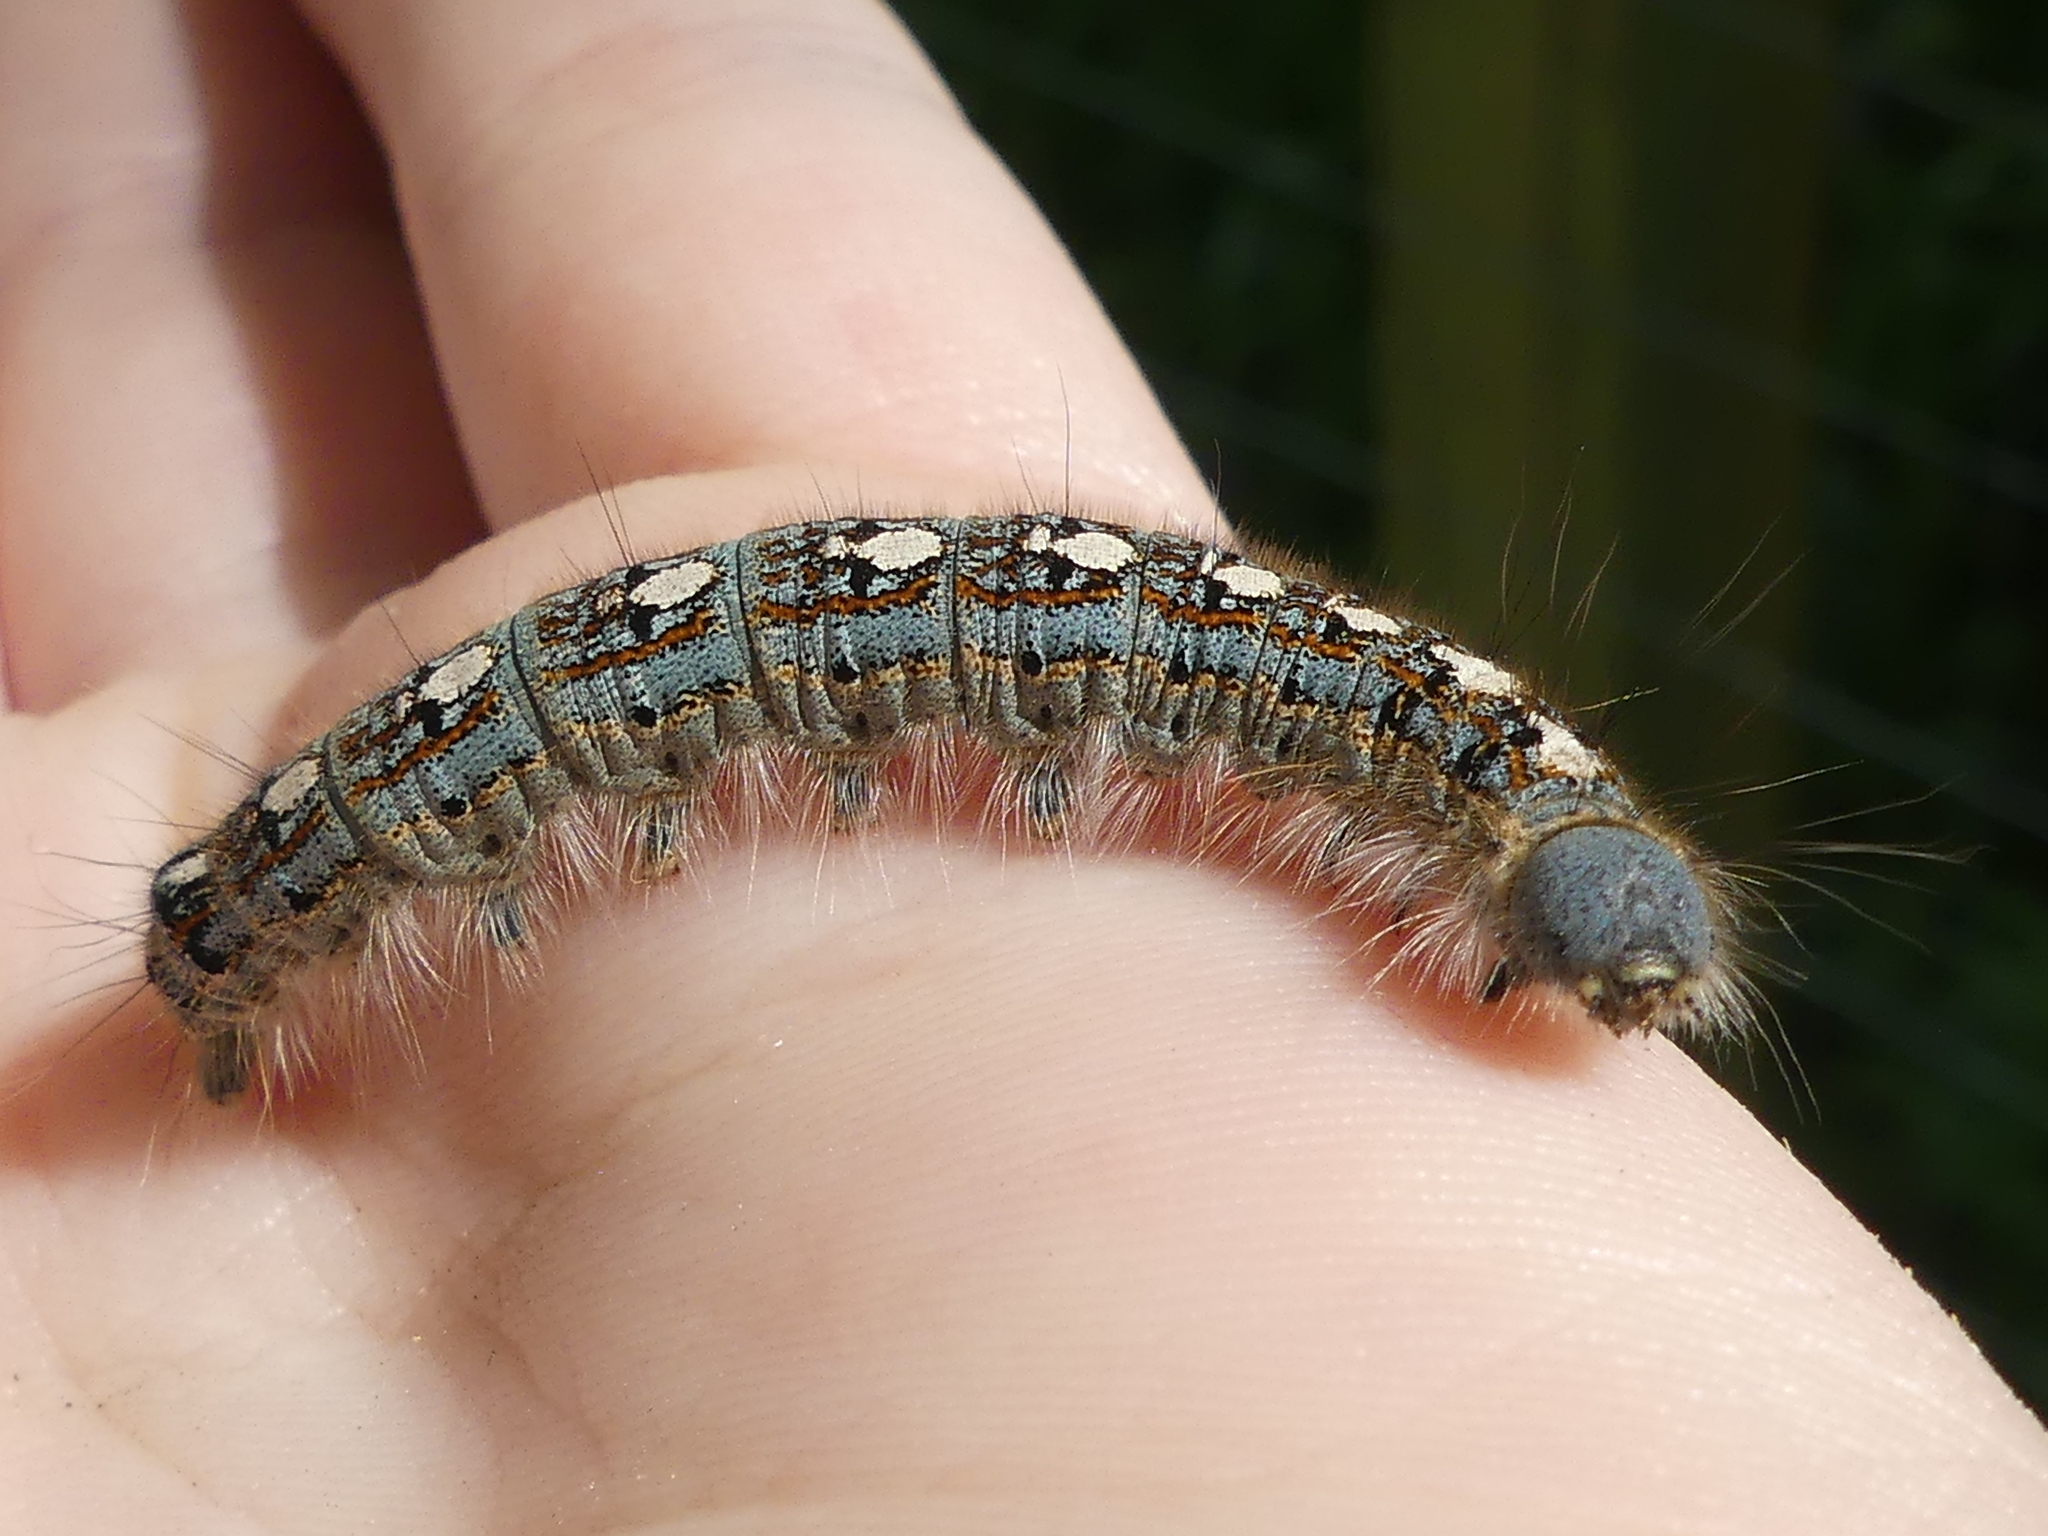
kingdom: Animalia
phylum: Arthropoda
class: Insecta
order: Lepidoptera
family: Lasiocampidae
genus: Malacosoma
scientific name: Malacosoma disstria
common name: Forest tent caterpillar
